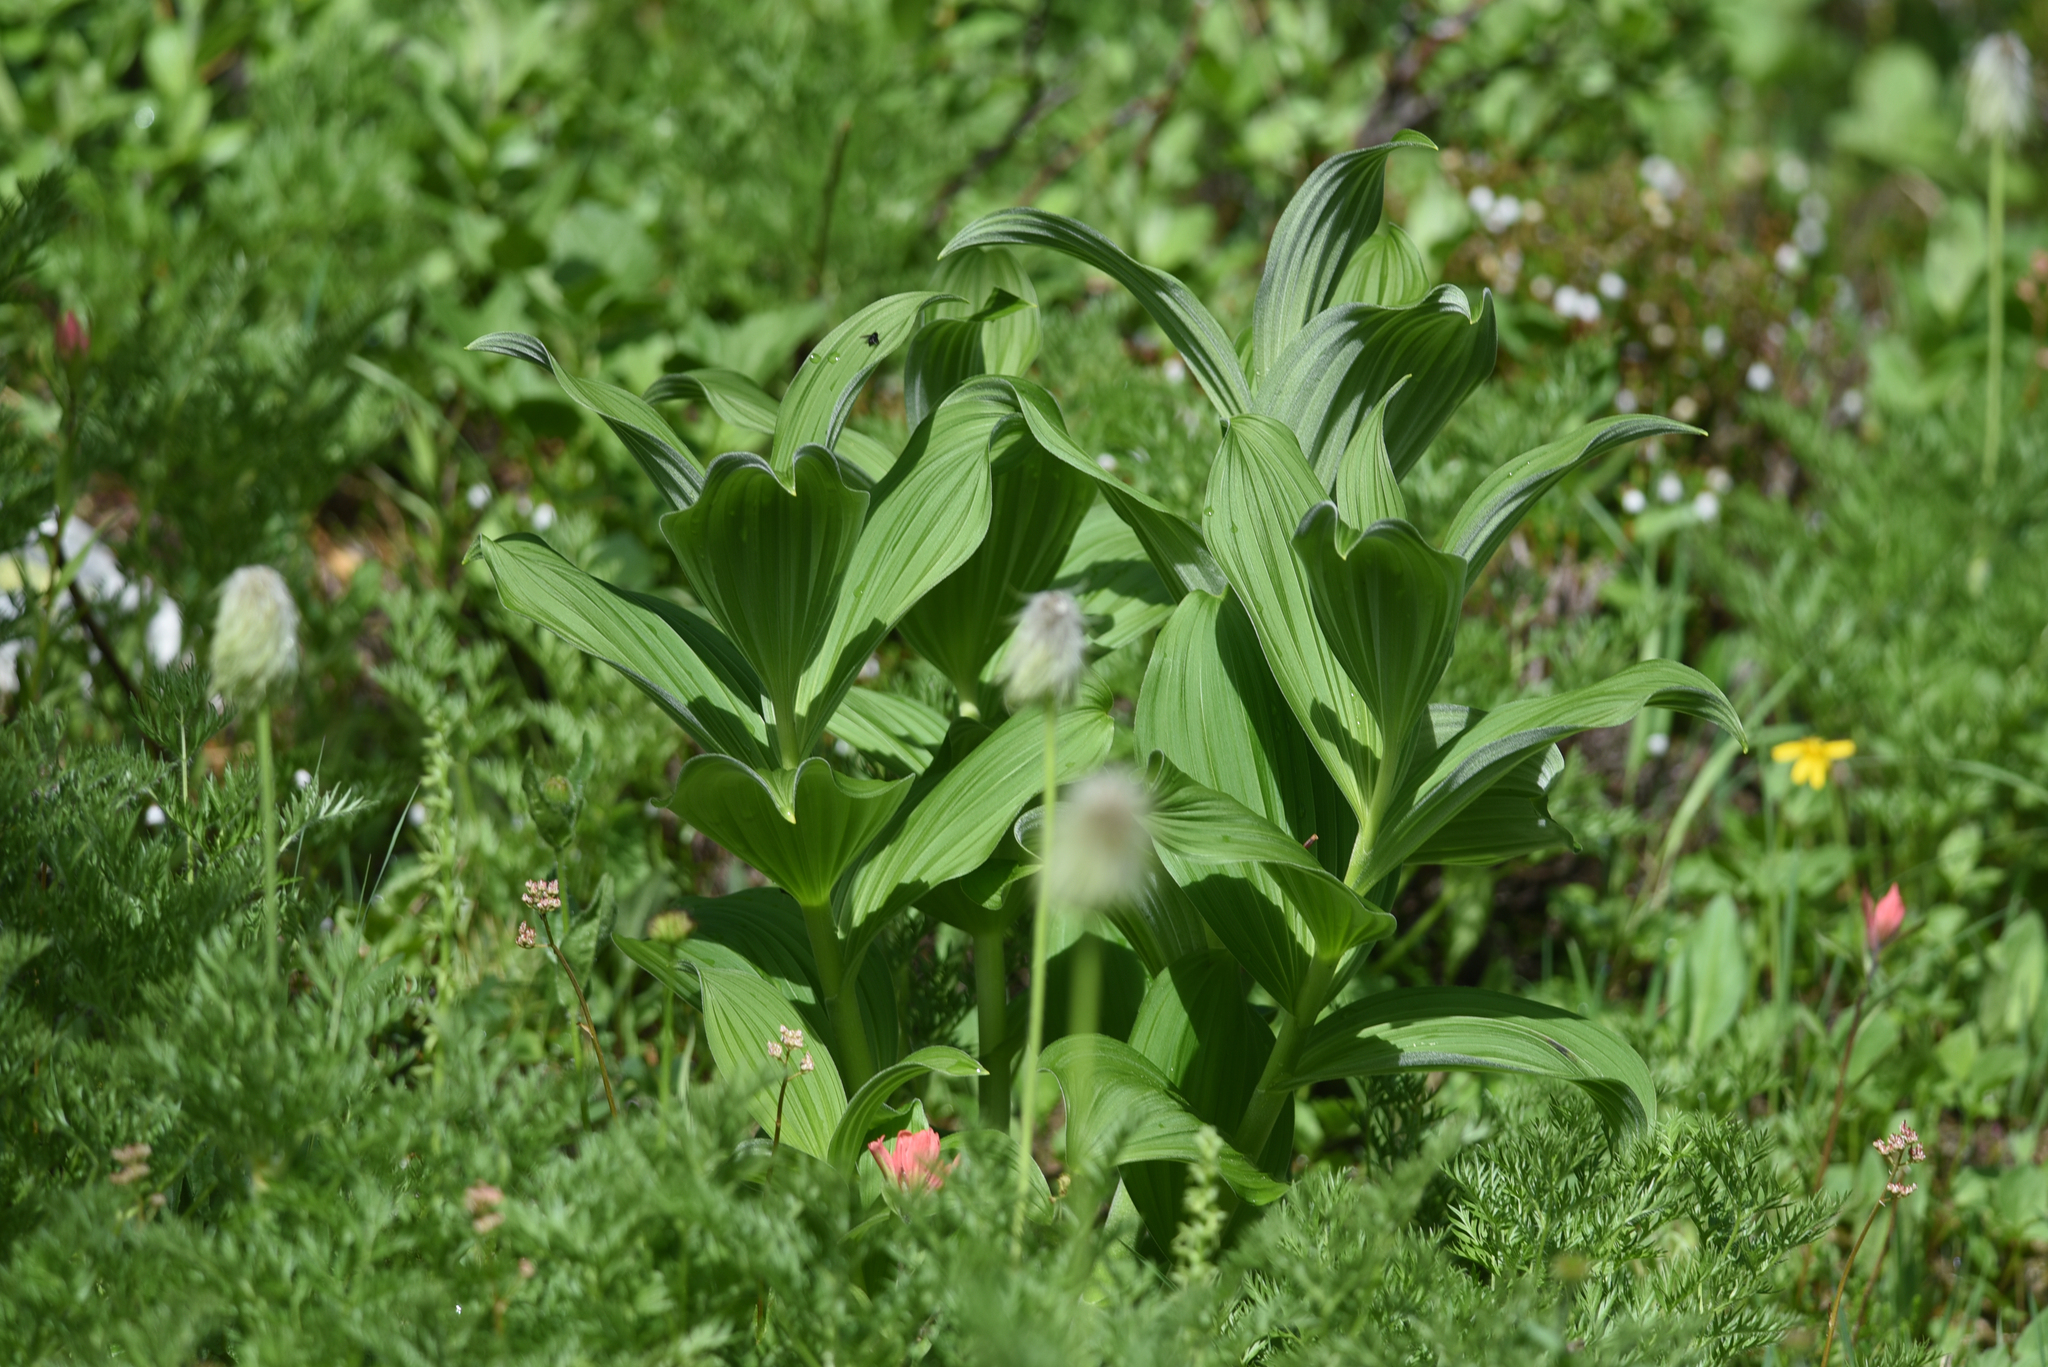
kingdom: Plantae
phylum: Tracheophyta
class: Liliopsida
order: Liliales
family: Melanthiaceae
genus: Veratrum
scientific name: Veratrum viride
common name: American false hellebore
